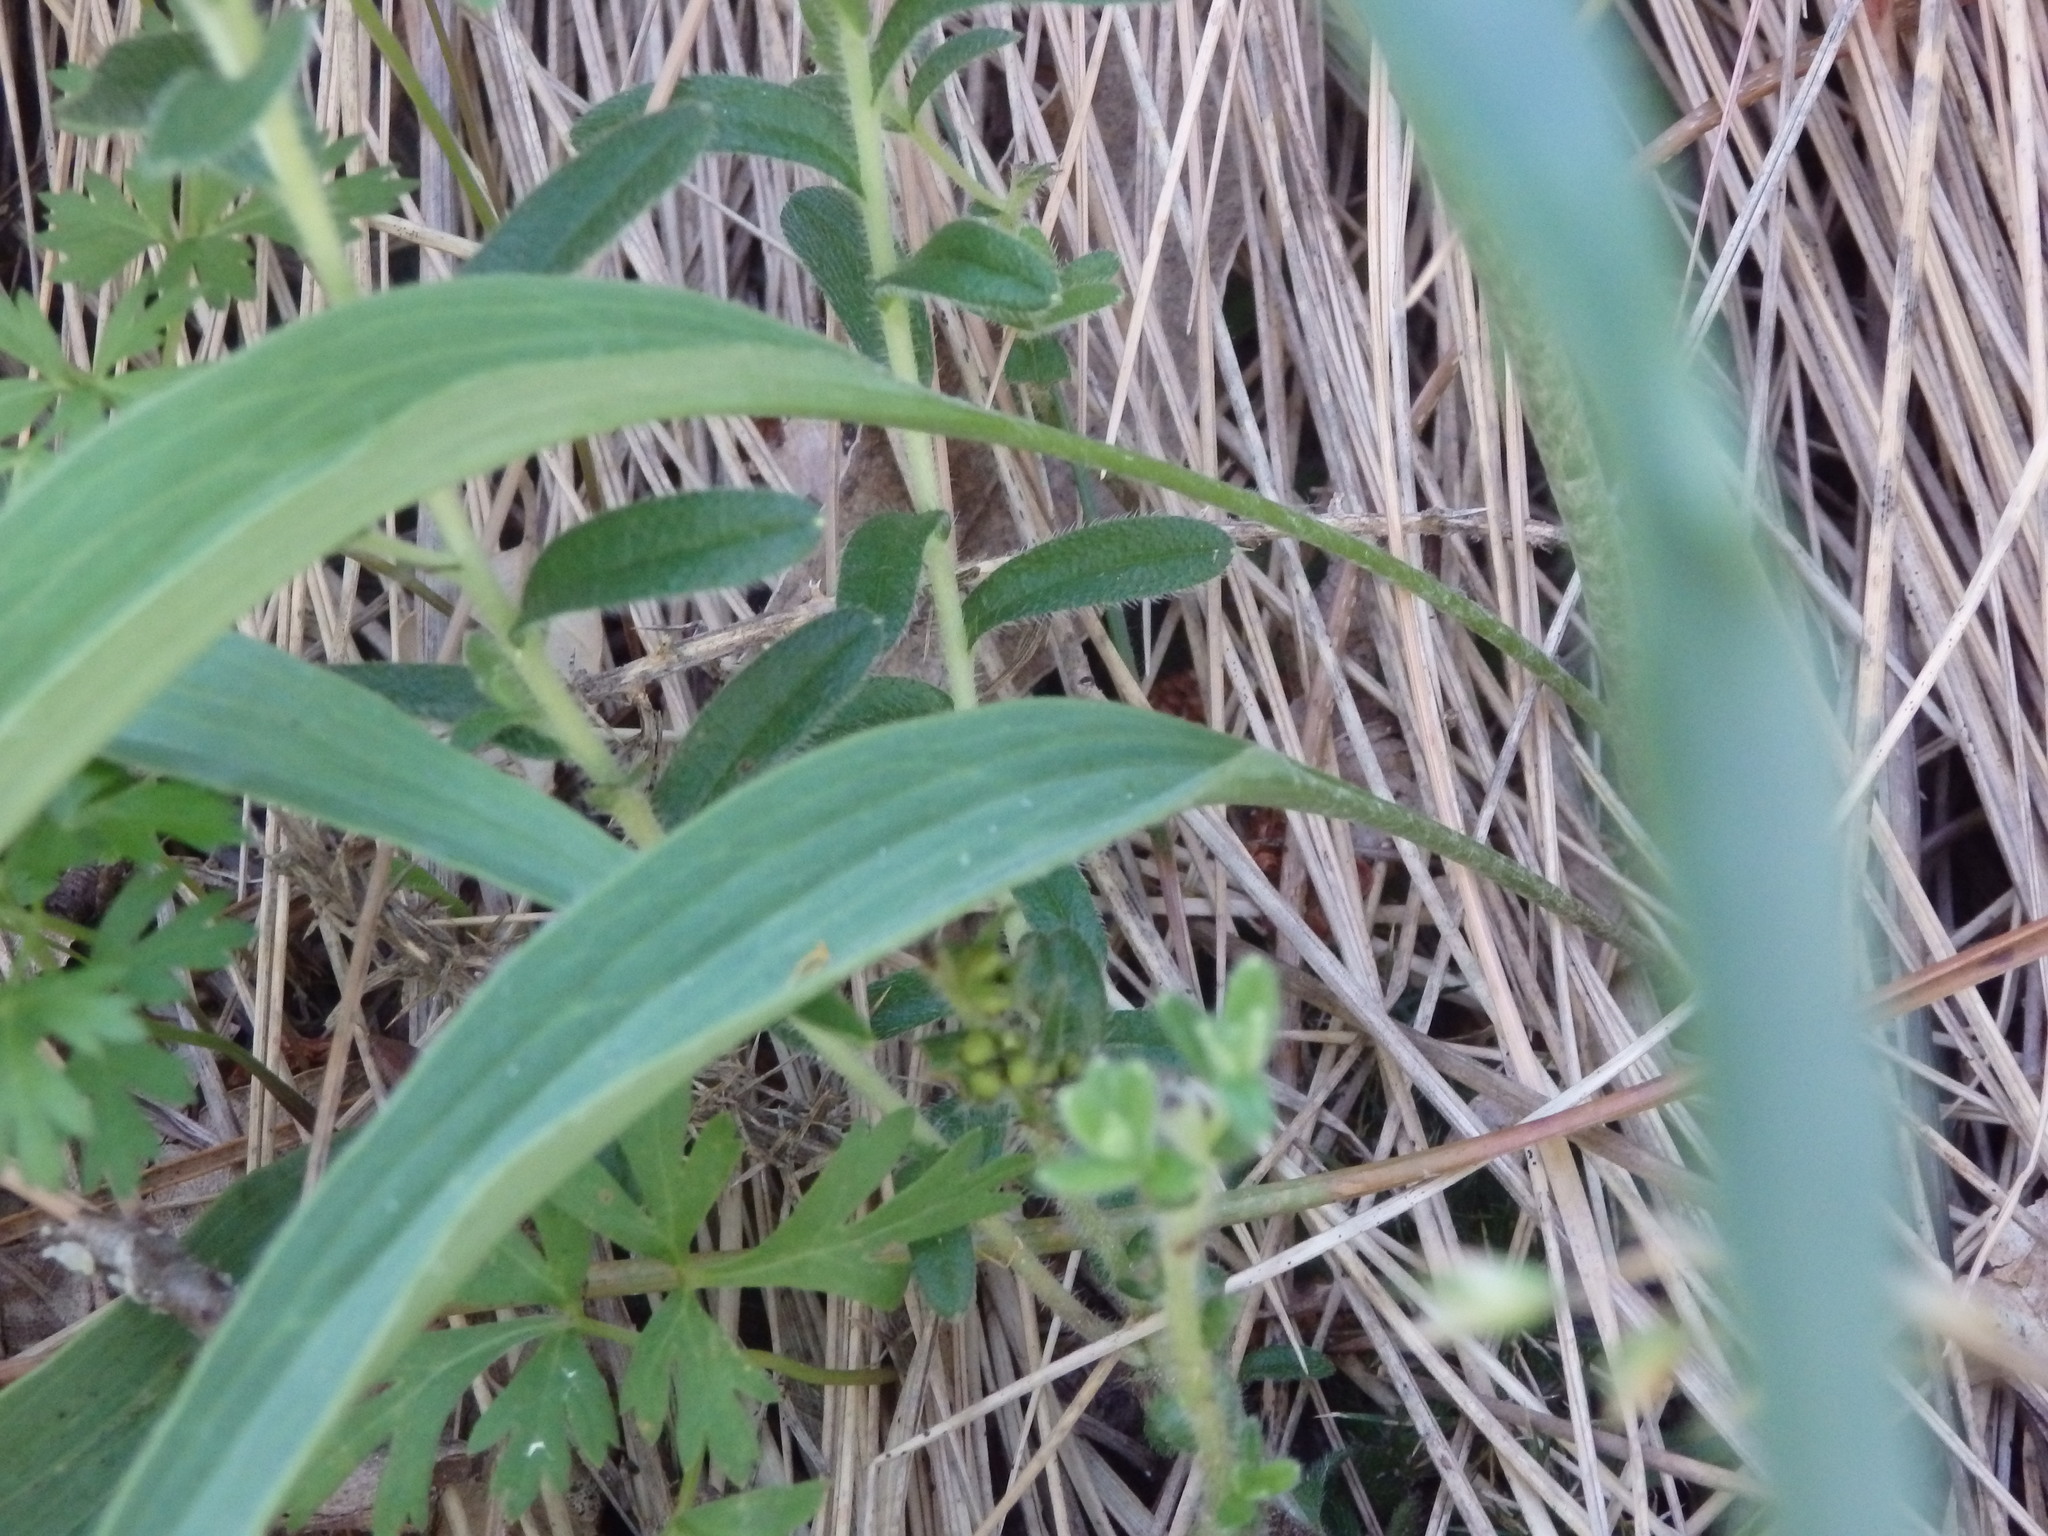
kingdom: Plantae
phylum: Tracheophyta
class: Magnoliopsida
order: Ranunculales
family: Ranunculaceae
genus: Ranunculus
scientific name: Ranunculus bupleuroides
